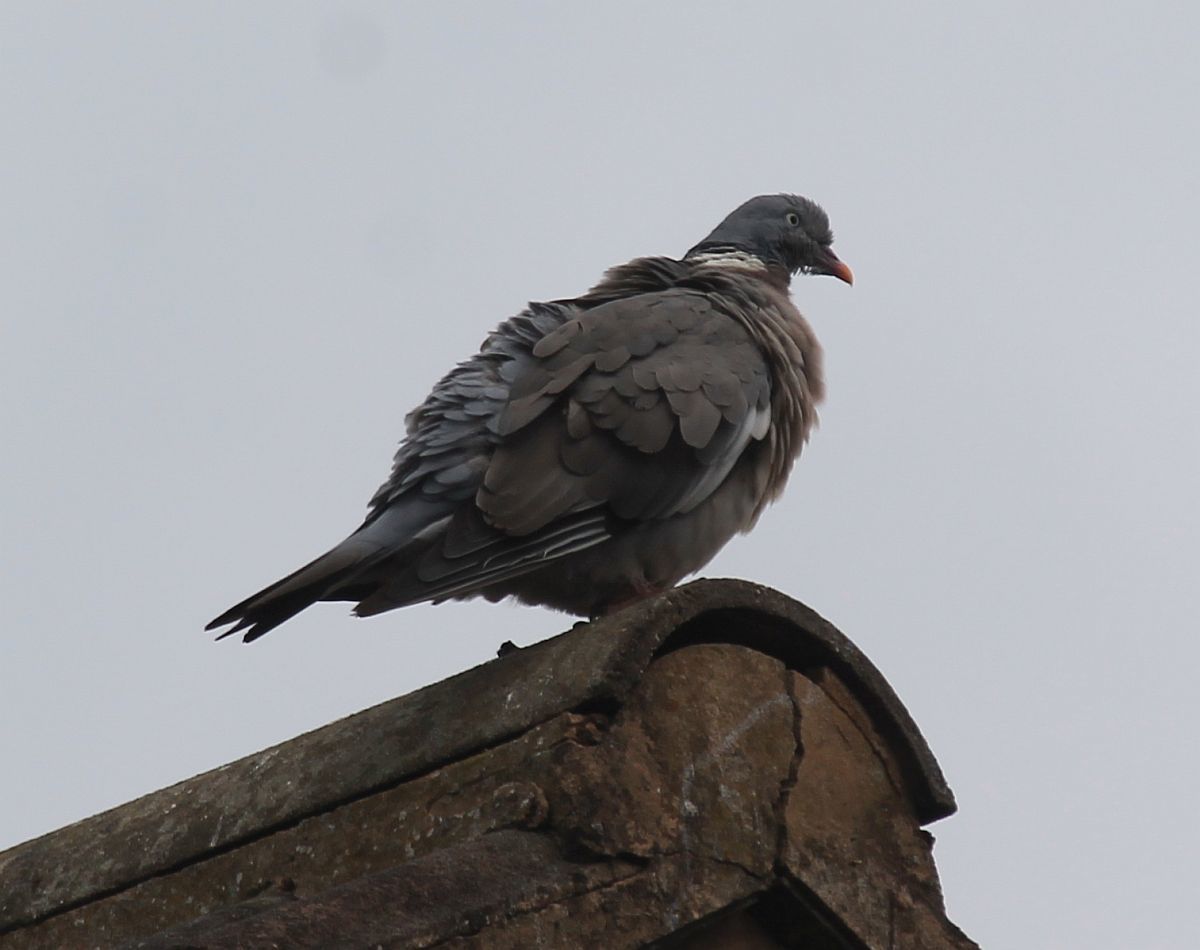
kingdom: Animalia
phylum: Chordata
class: Aves
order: Columbiformes
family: Columbidae
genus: Columba
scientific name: Columba palumbus
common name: Common wood pigeon
